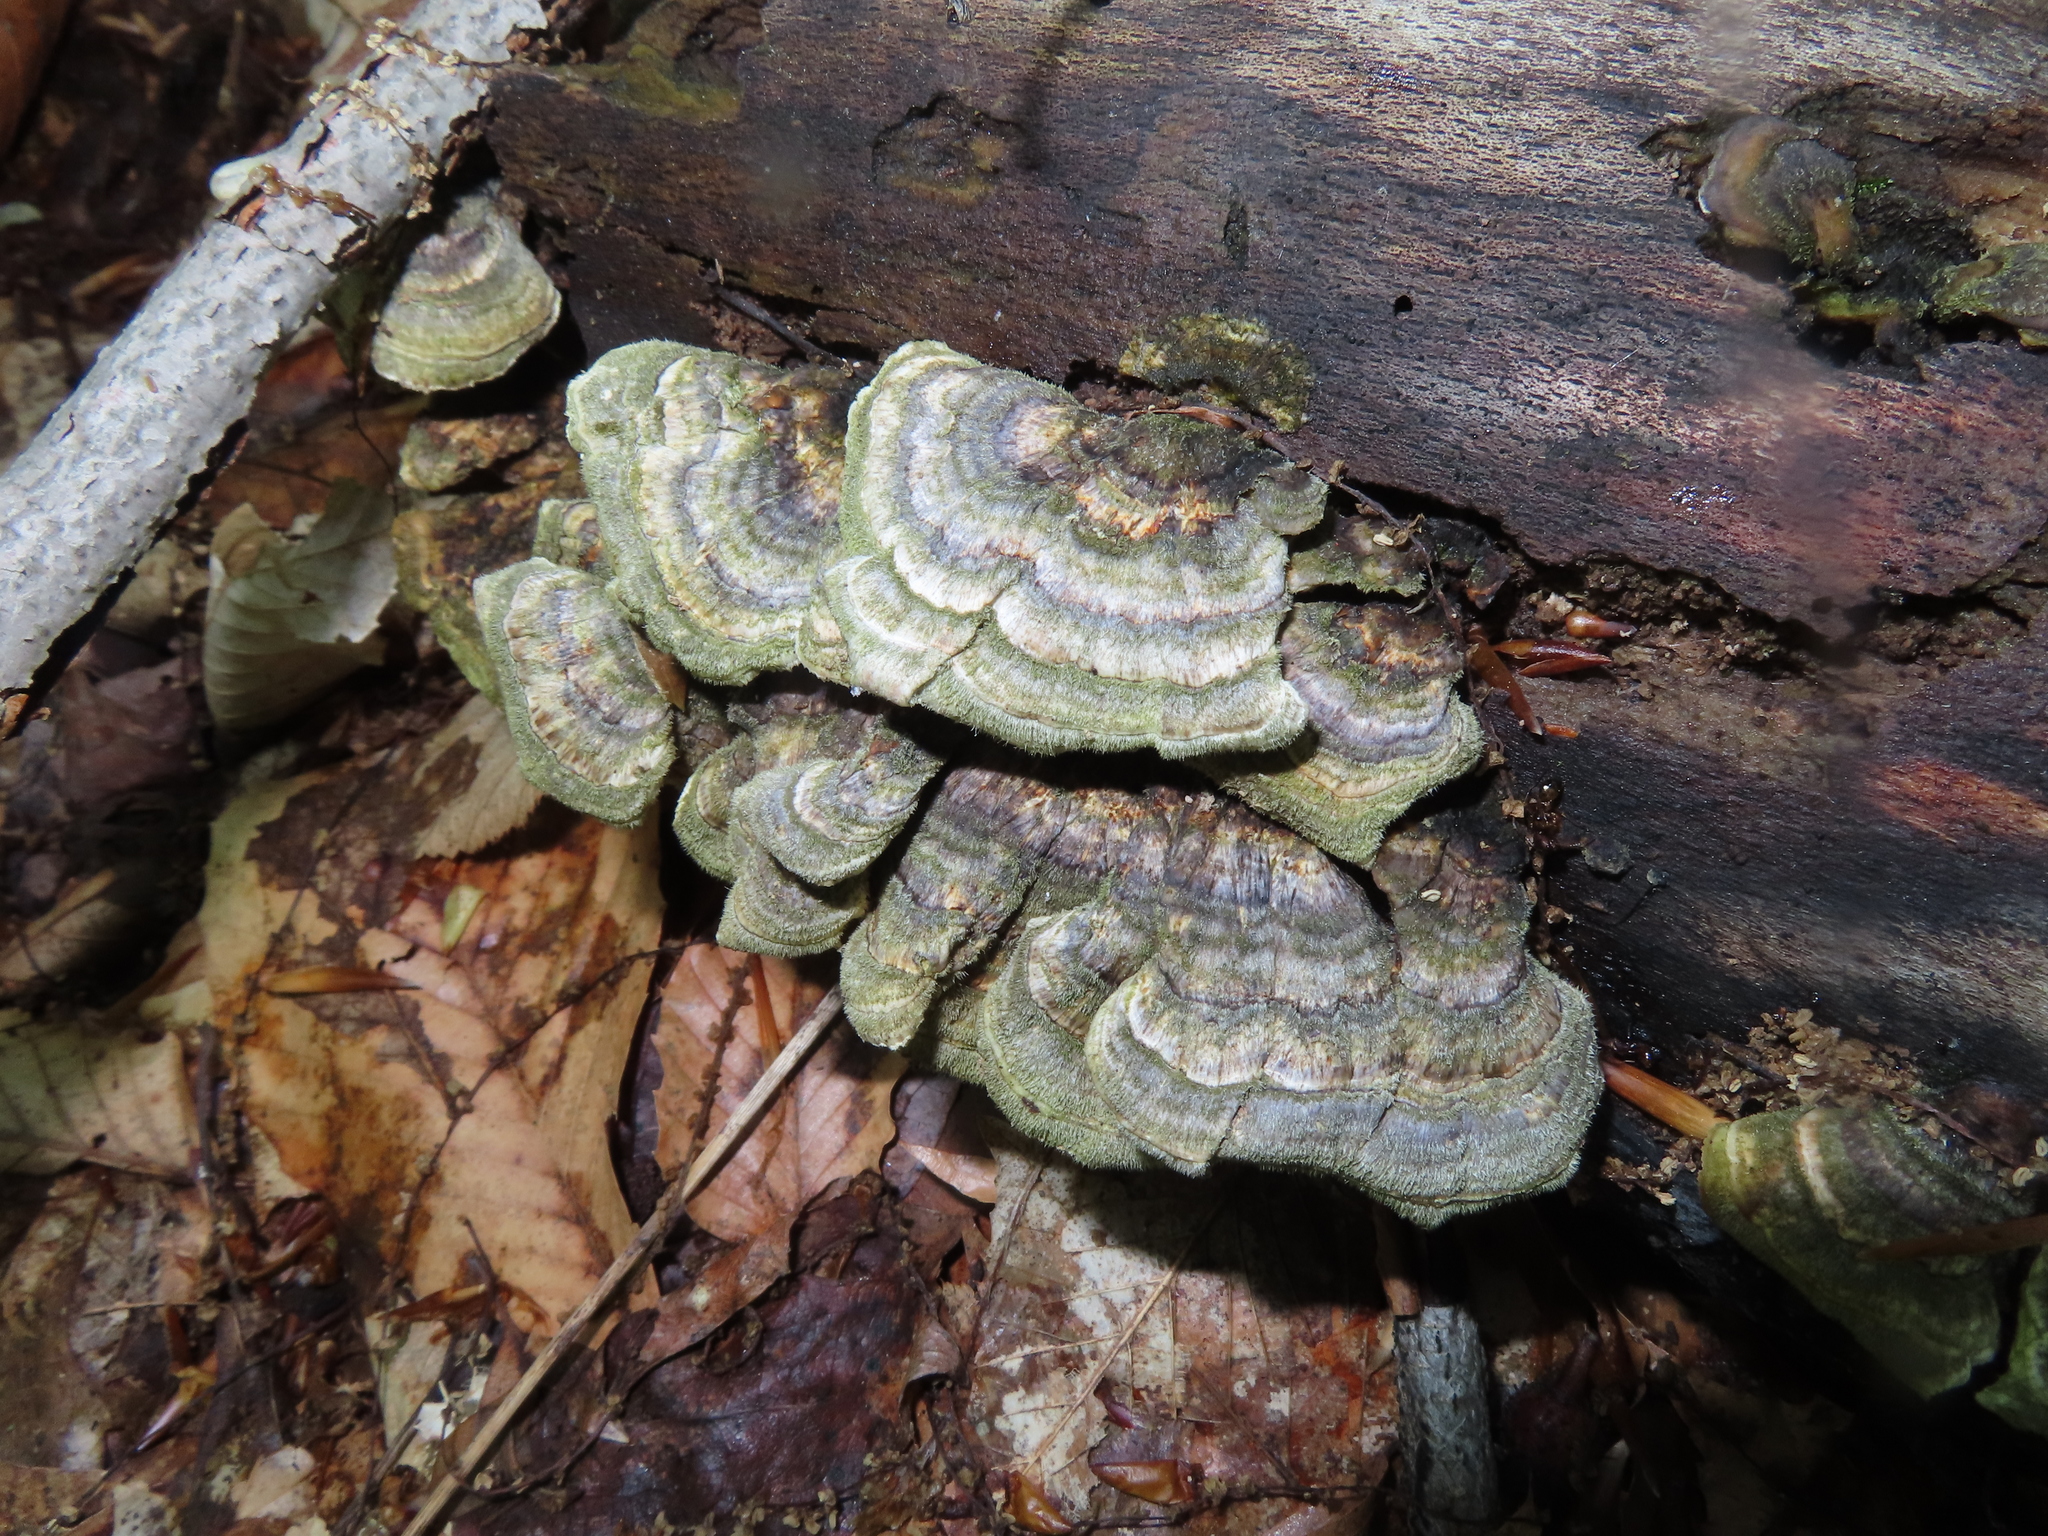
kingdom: Fungi
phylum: Basidiomycota
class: Agaricomycetes
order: Polyporales
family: Polyporaceae
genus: Trametes
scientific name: Trametes versicolor
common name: Turkeytail
